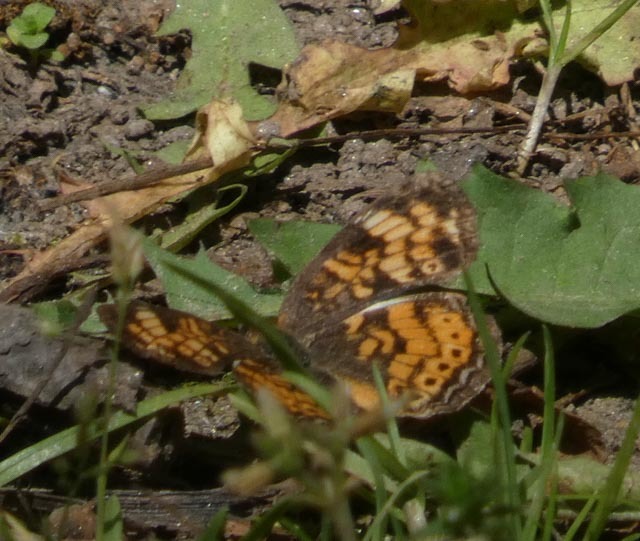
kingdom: Animalia
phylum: Arthropoda
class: Insecta
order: Lepidoptera
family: Nymphalidae
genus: Phyciodes
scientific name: Phyciodes tharos
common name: Pearl crescent
